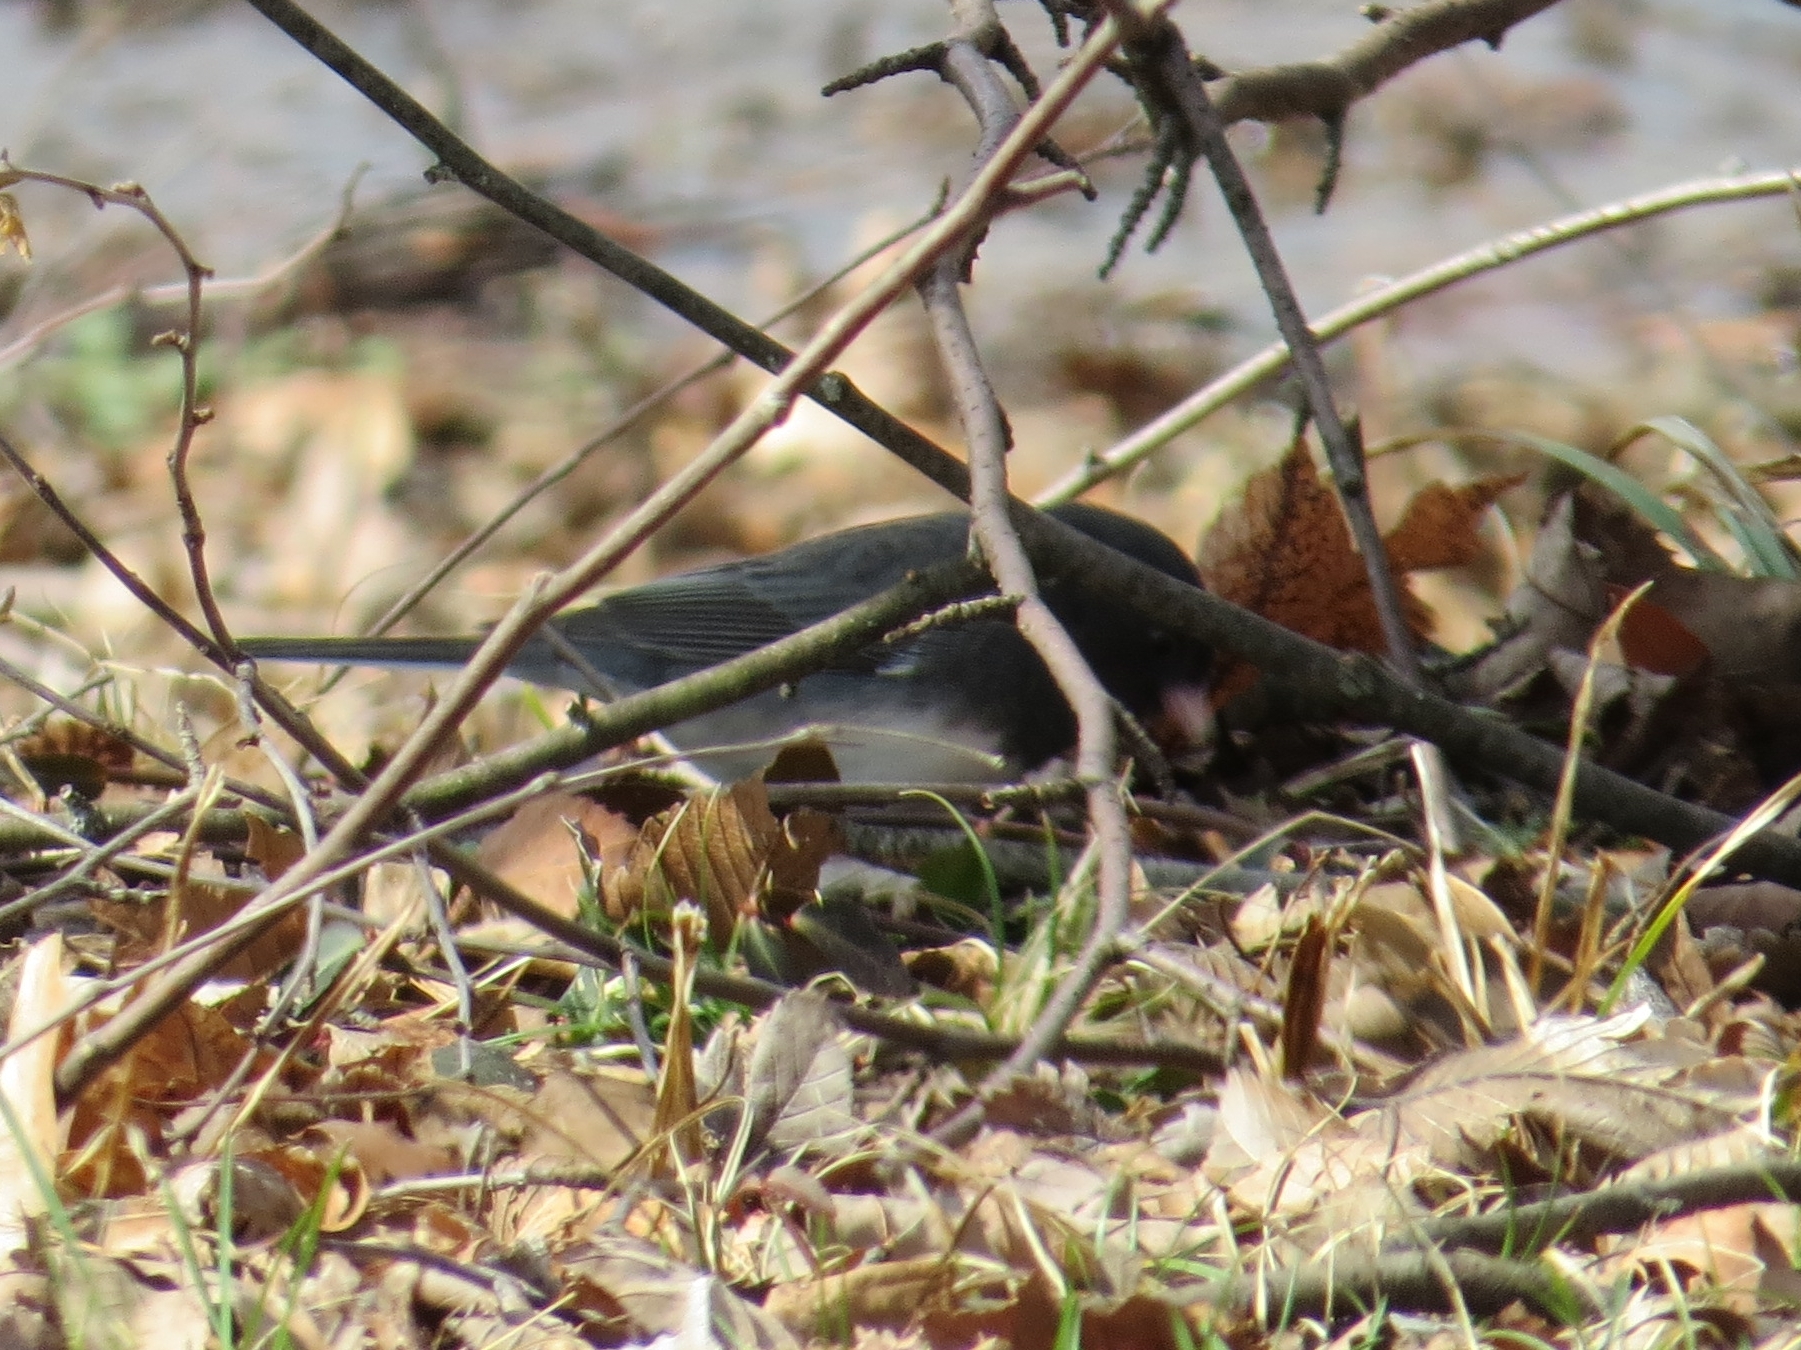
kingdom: Animalia
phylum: Chordata
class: Aves
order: Passeriformes
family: Passerellidae
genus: Junco
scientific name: Junco hyemalis
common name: Dark-eyed junco
